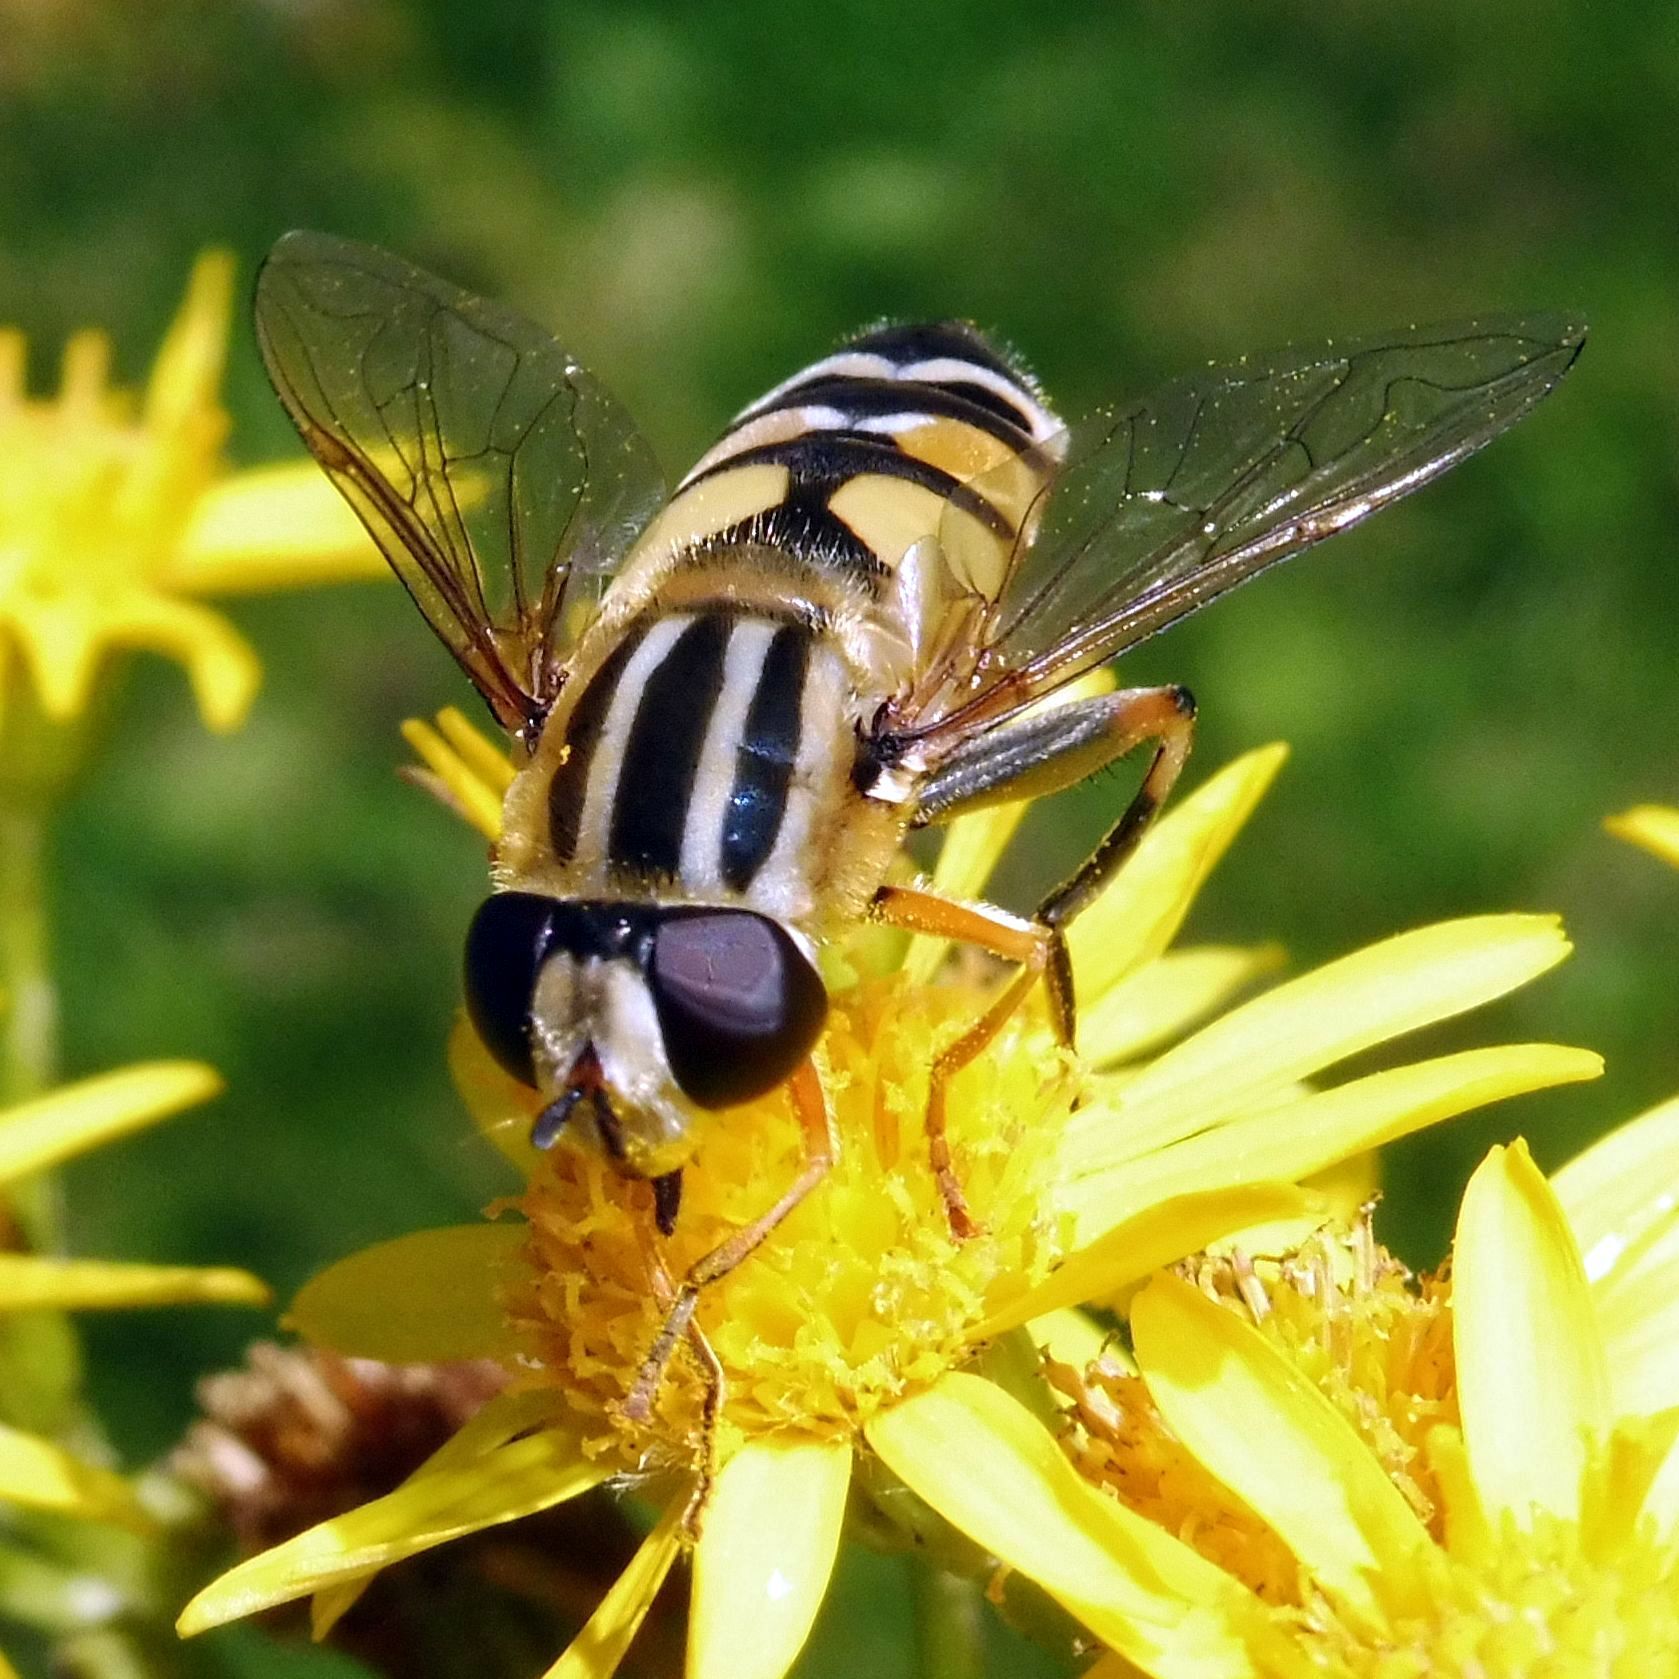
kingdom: Animalia
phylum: Arthropoda
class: Insecta
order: Diptera
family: Syrphidae
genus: Helophilus
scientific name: Helophilus trivittatus
